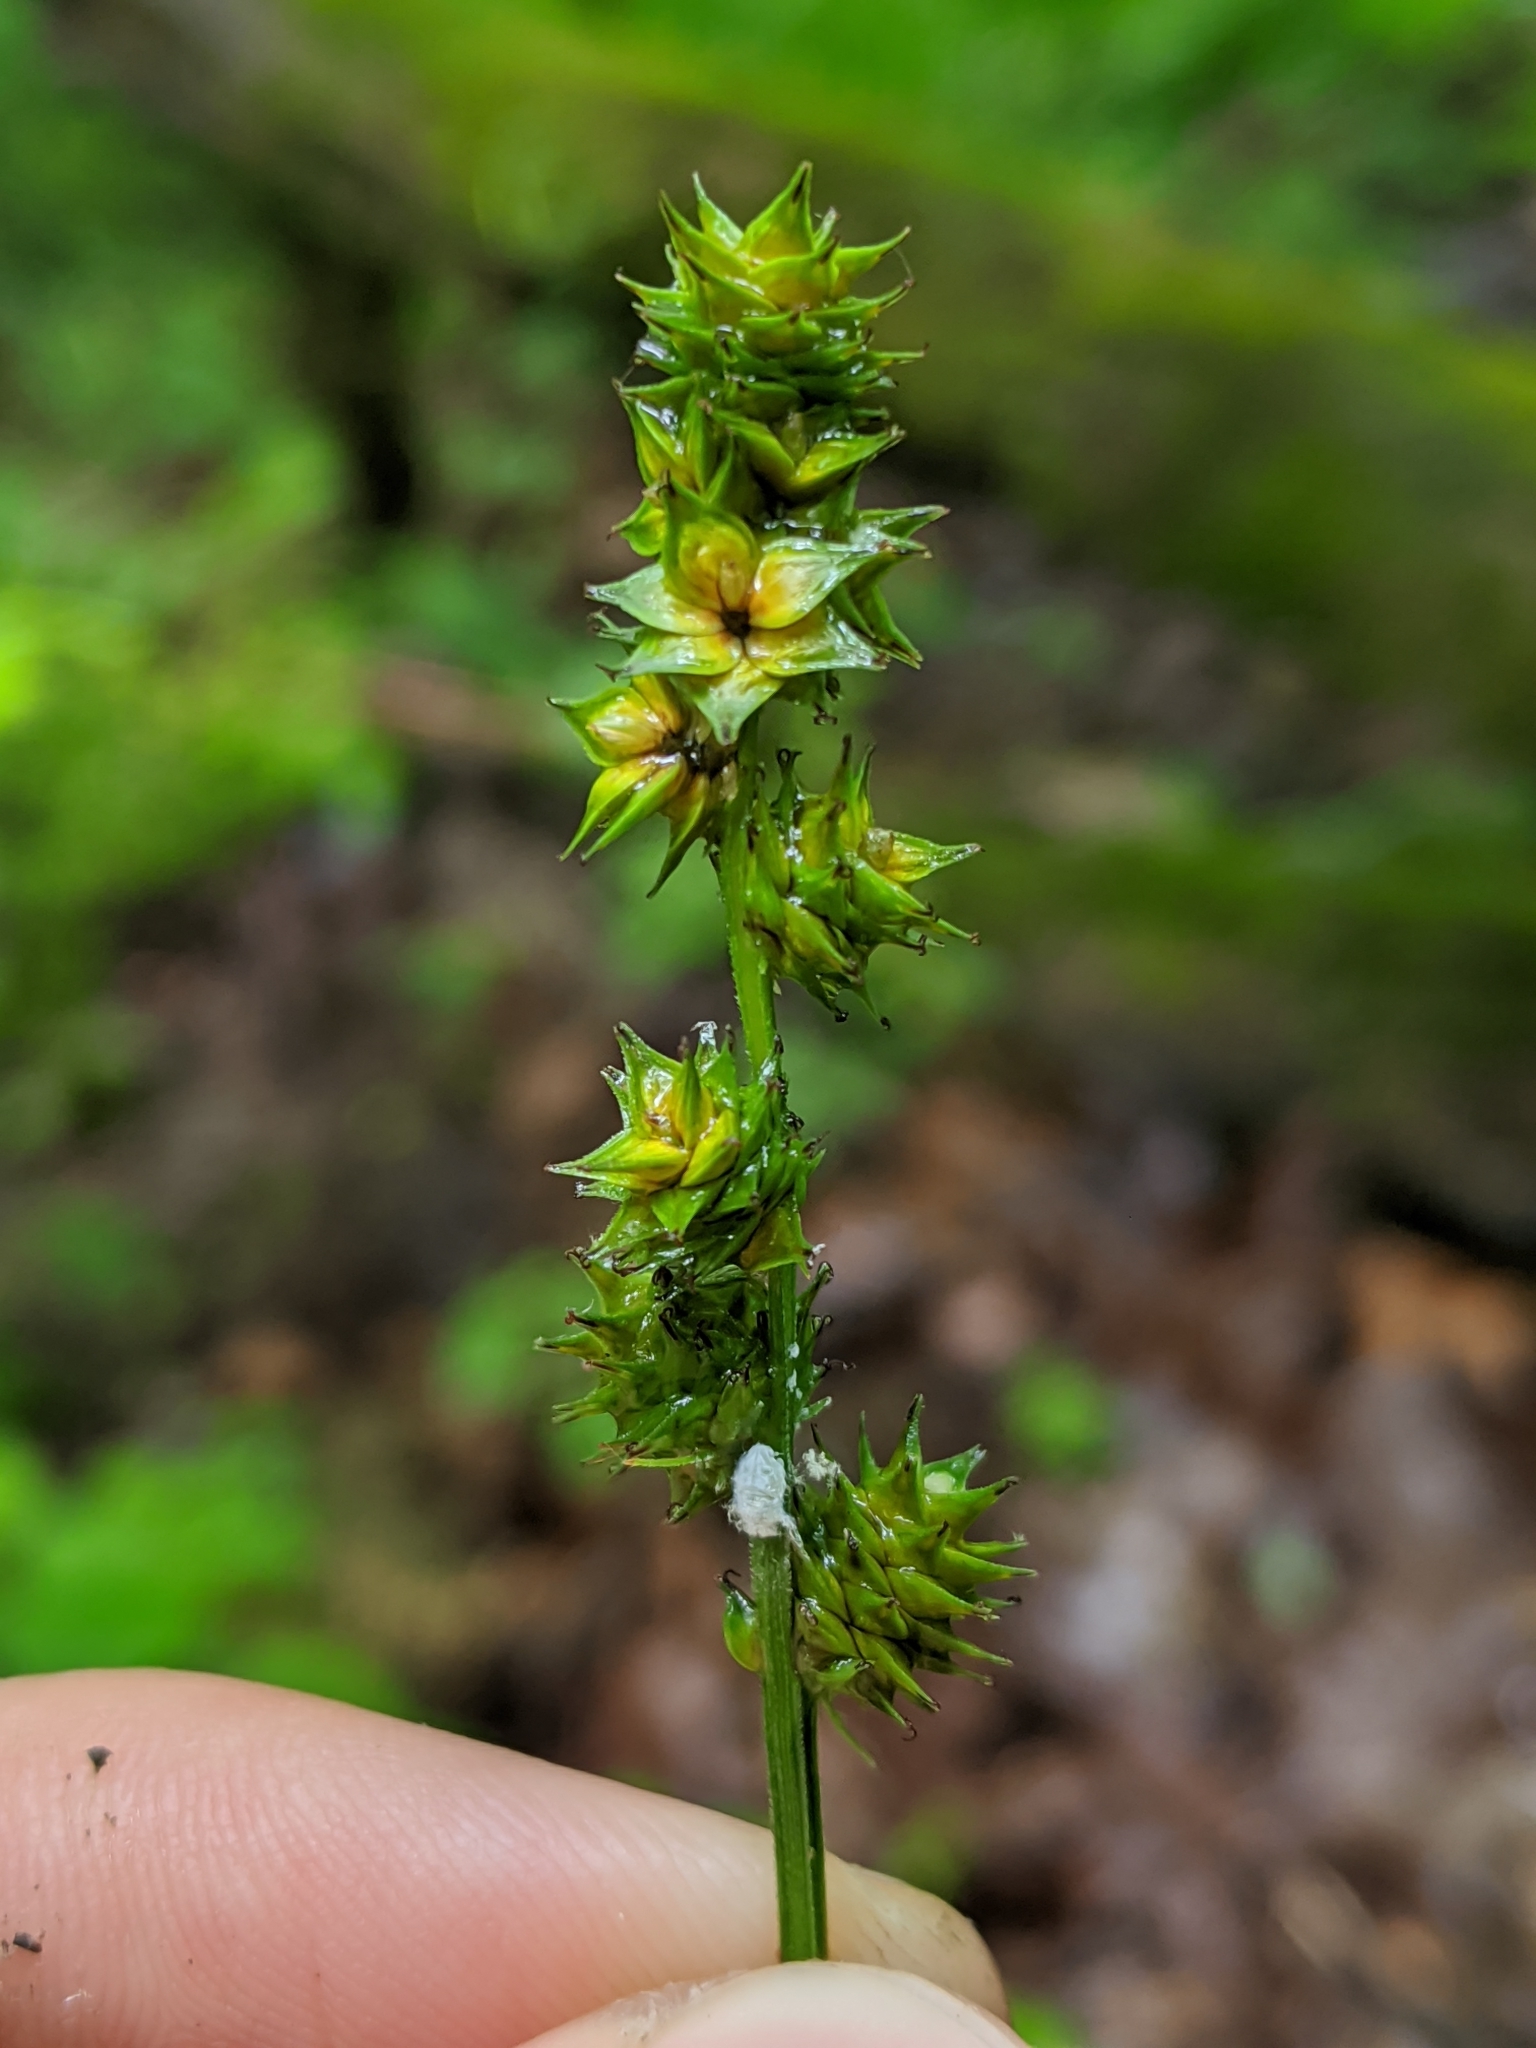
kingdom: Plantae
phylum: Tracheophyta
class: Liliopsida
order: Poales
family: Cyperaceae
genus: Carex
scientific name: Carex sparganioides
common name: Burreed sedge
